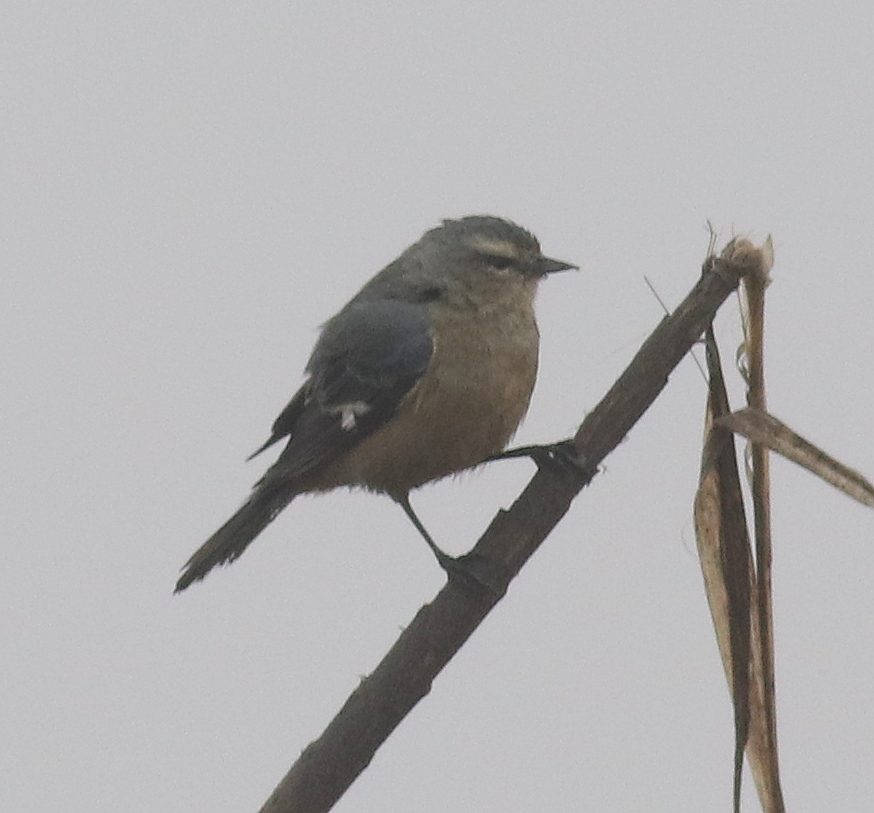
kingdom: Animalia
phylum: Chordata
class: Aves
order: Passeriformes
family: Thraupidae
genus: Conirostrum
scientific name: Conirostrum cinereum
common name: Cinereous conebill
